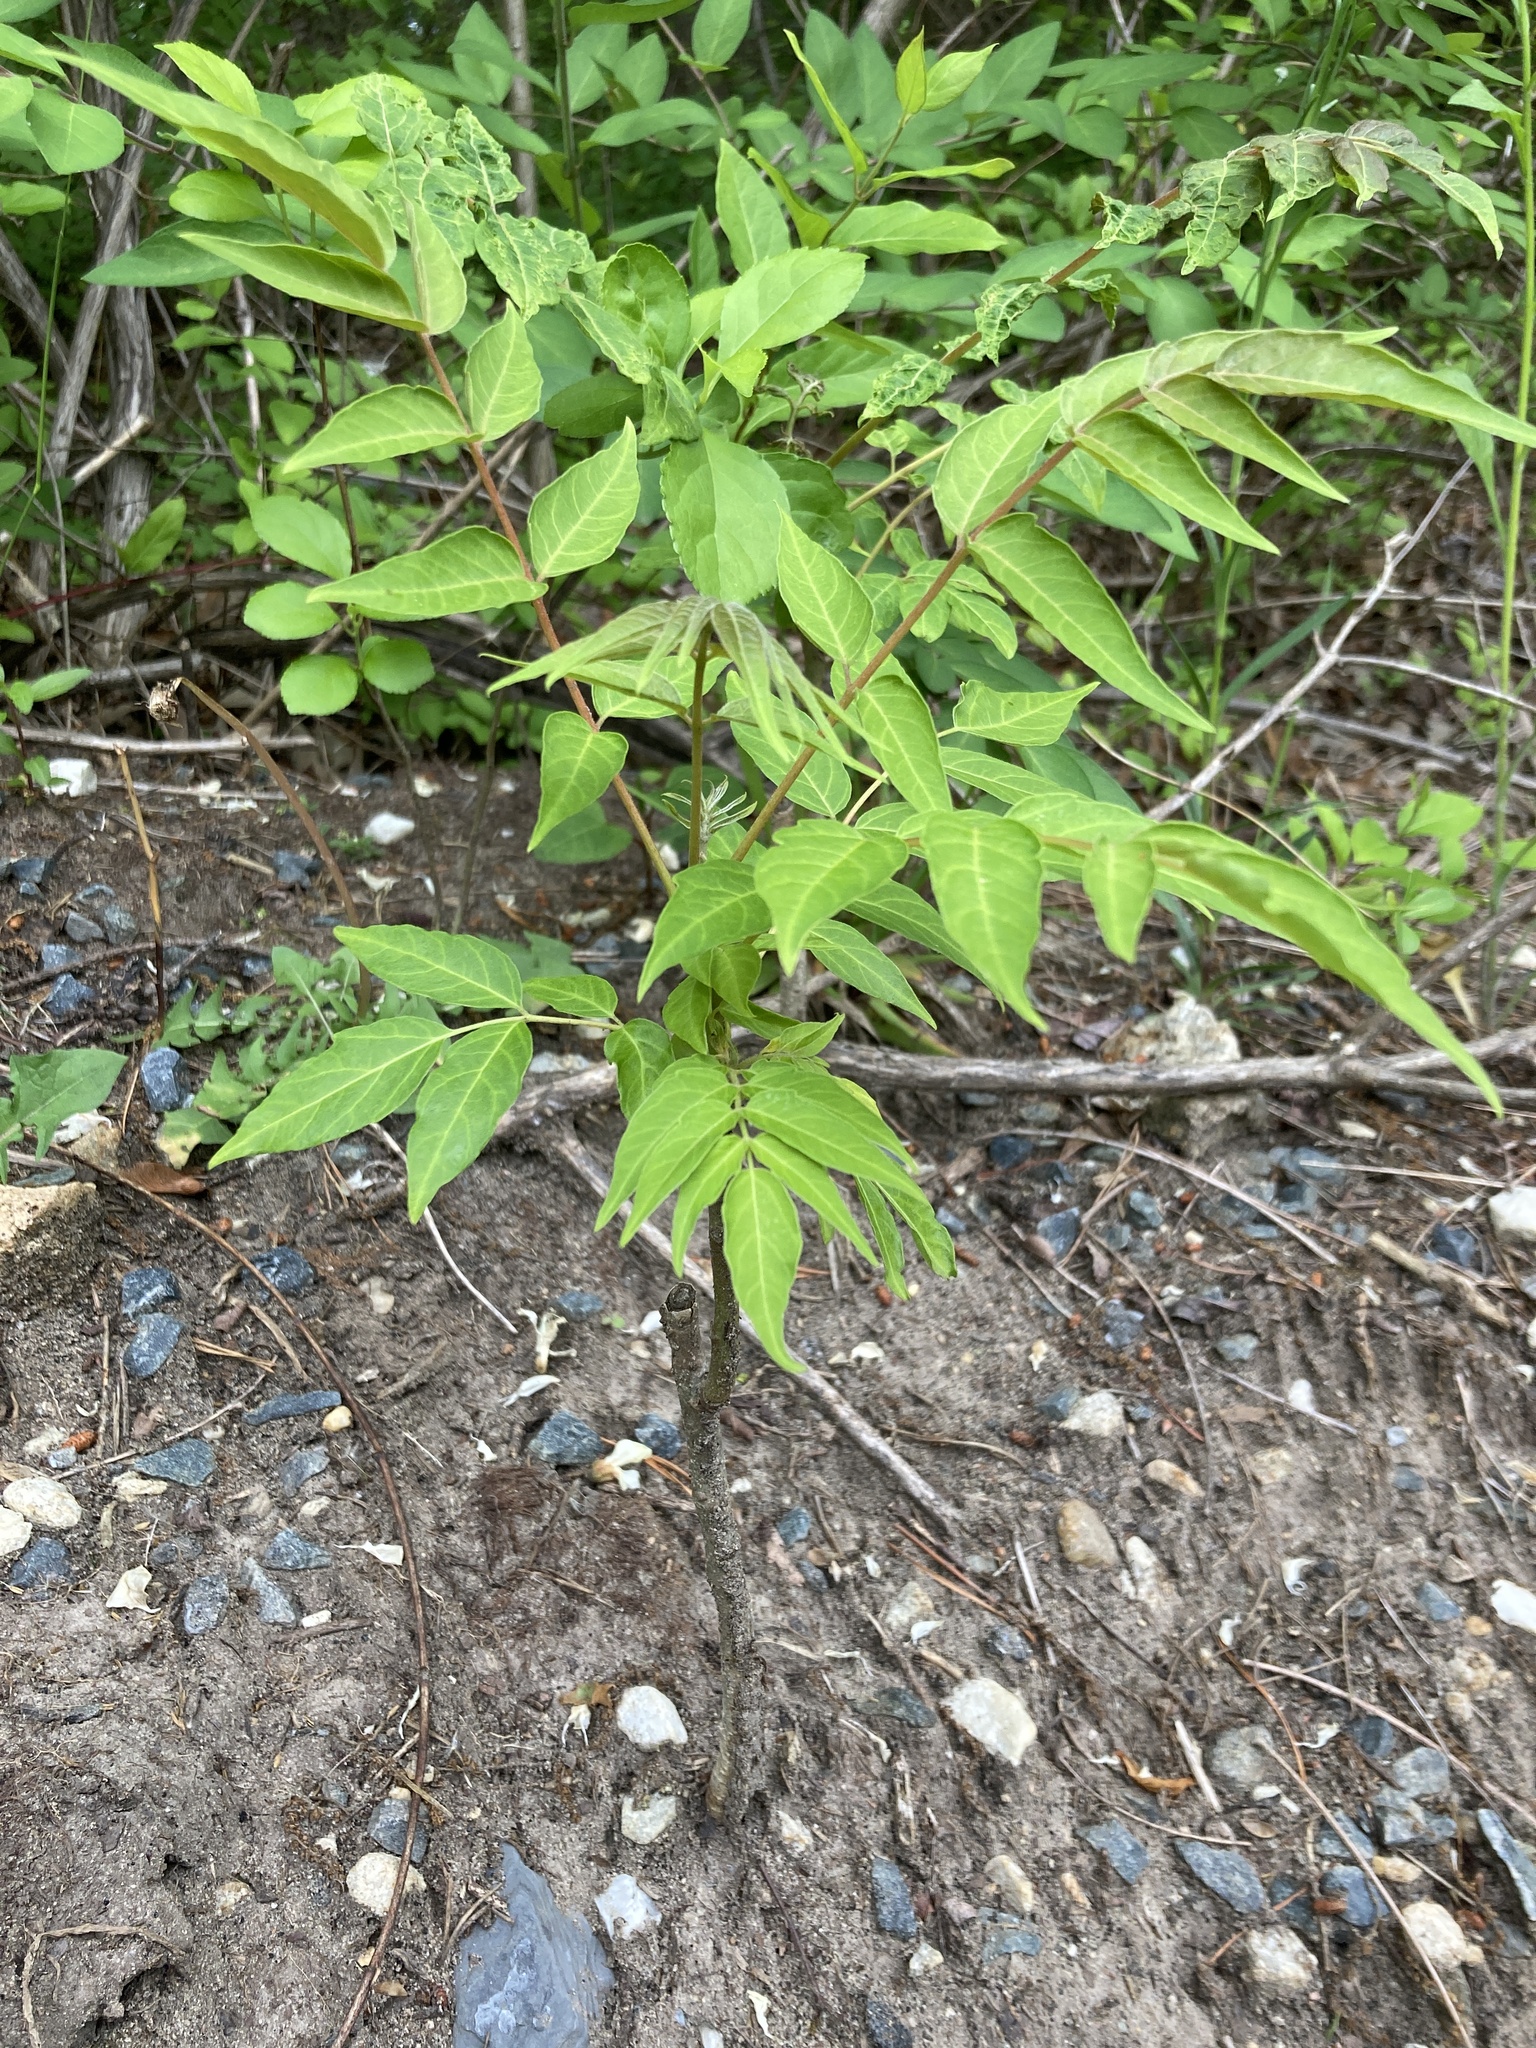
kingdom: Plantae
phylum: Tracheophyta
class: Magnoliopsida
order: Sapindales
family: Simaroubaceae
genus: Ailanthus
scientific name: Ailanthus altissima
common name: Tree-of-heaven
